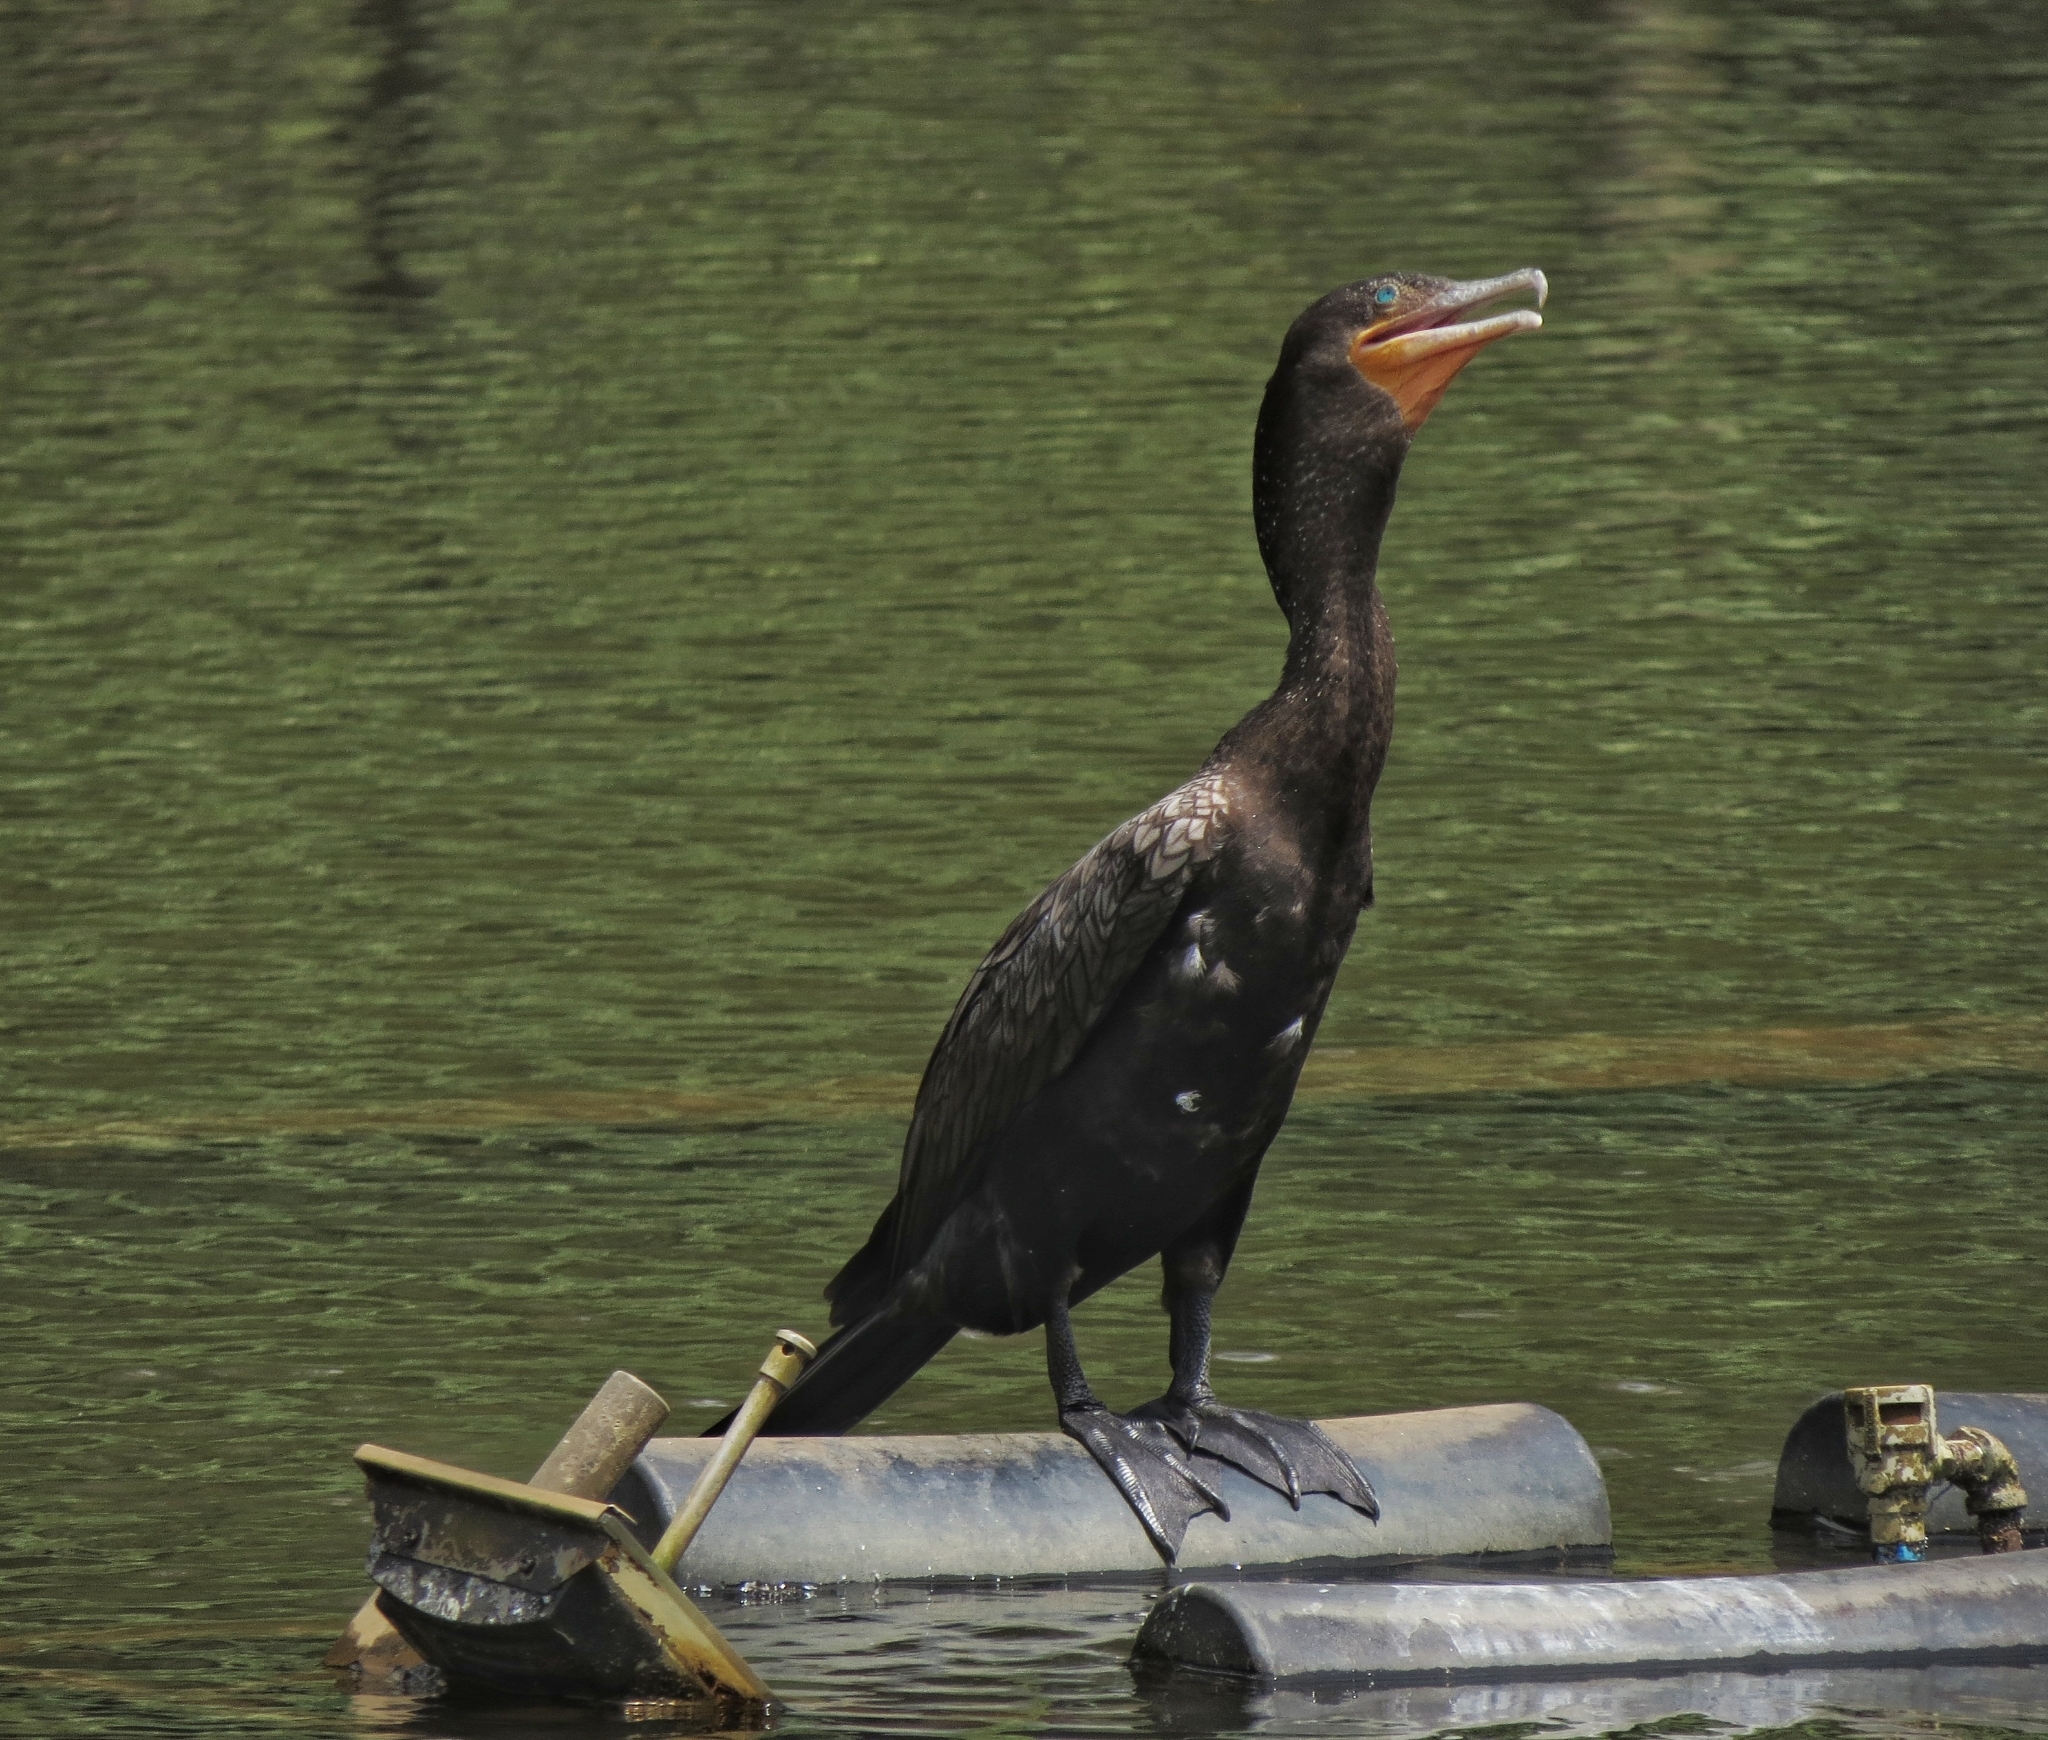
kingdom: Animalia
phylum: Chordata
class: Aves
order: Suliformes
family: Phalacrocoracidae
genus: Phalacrocorax
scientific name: Phalacrocorax brasilianus
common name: Neotropic cormorant
